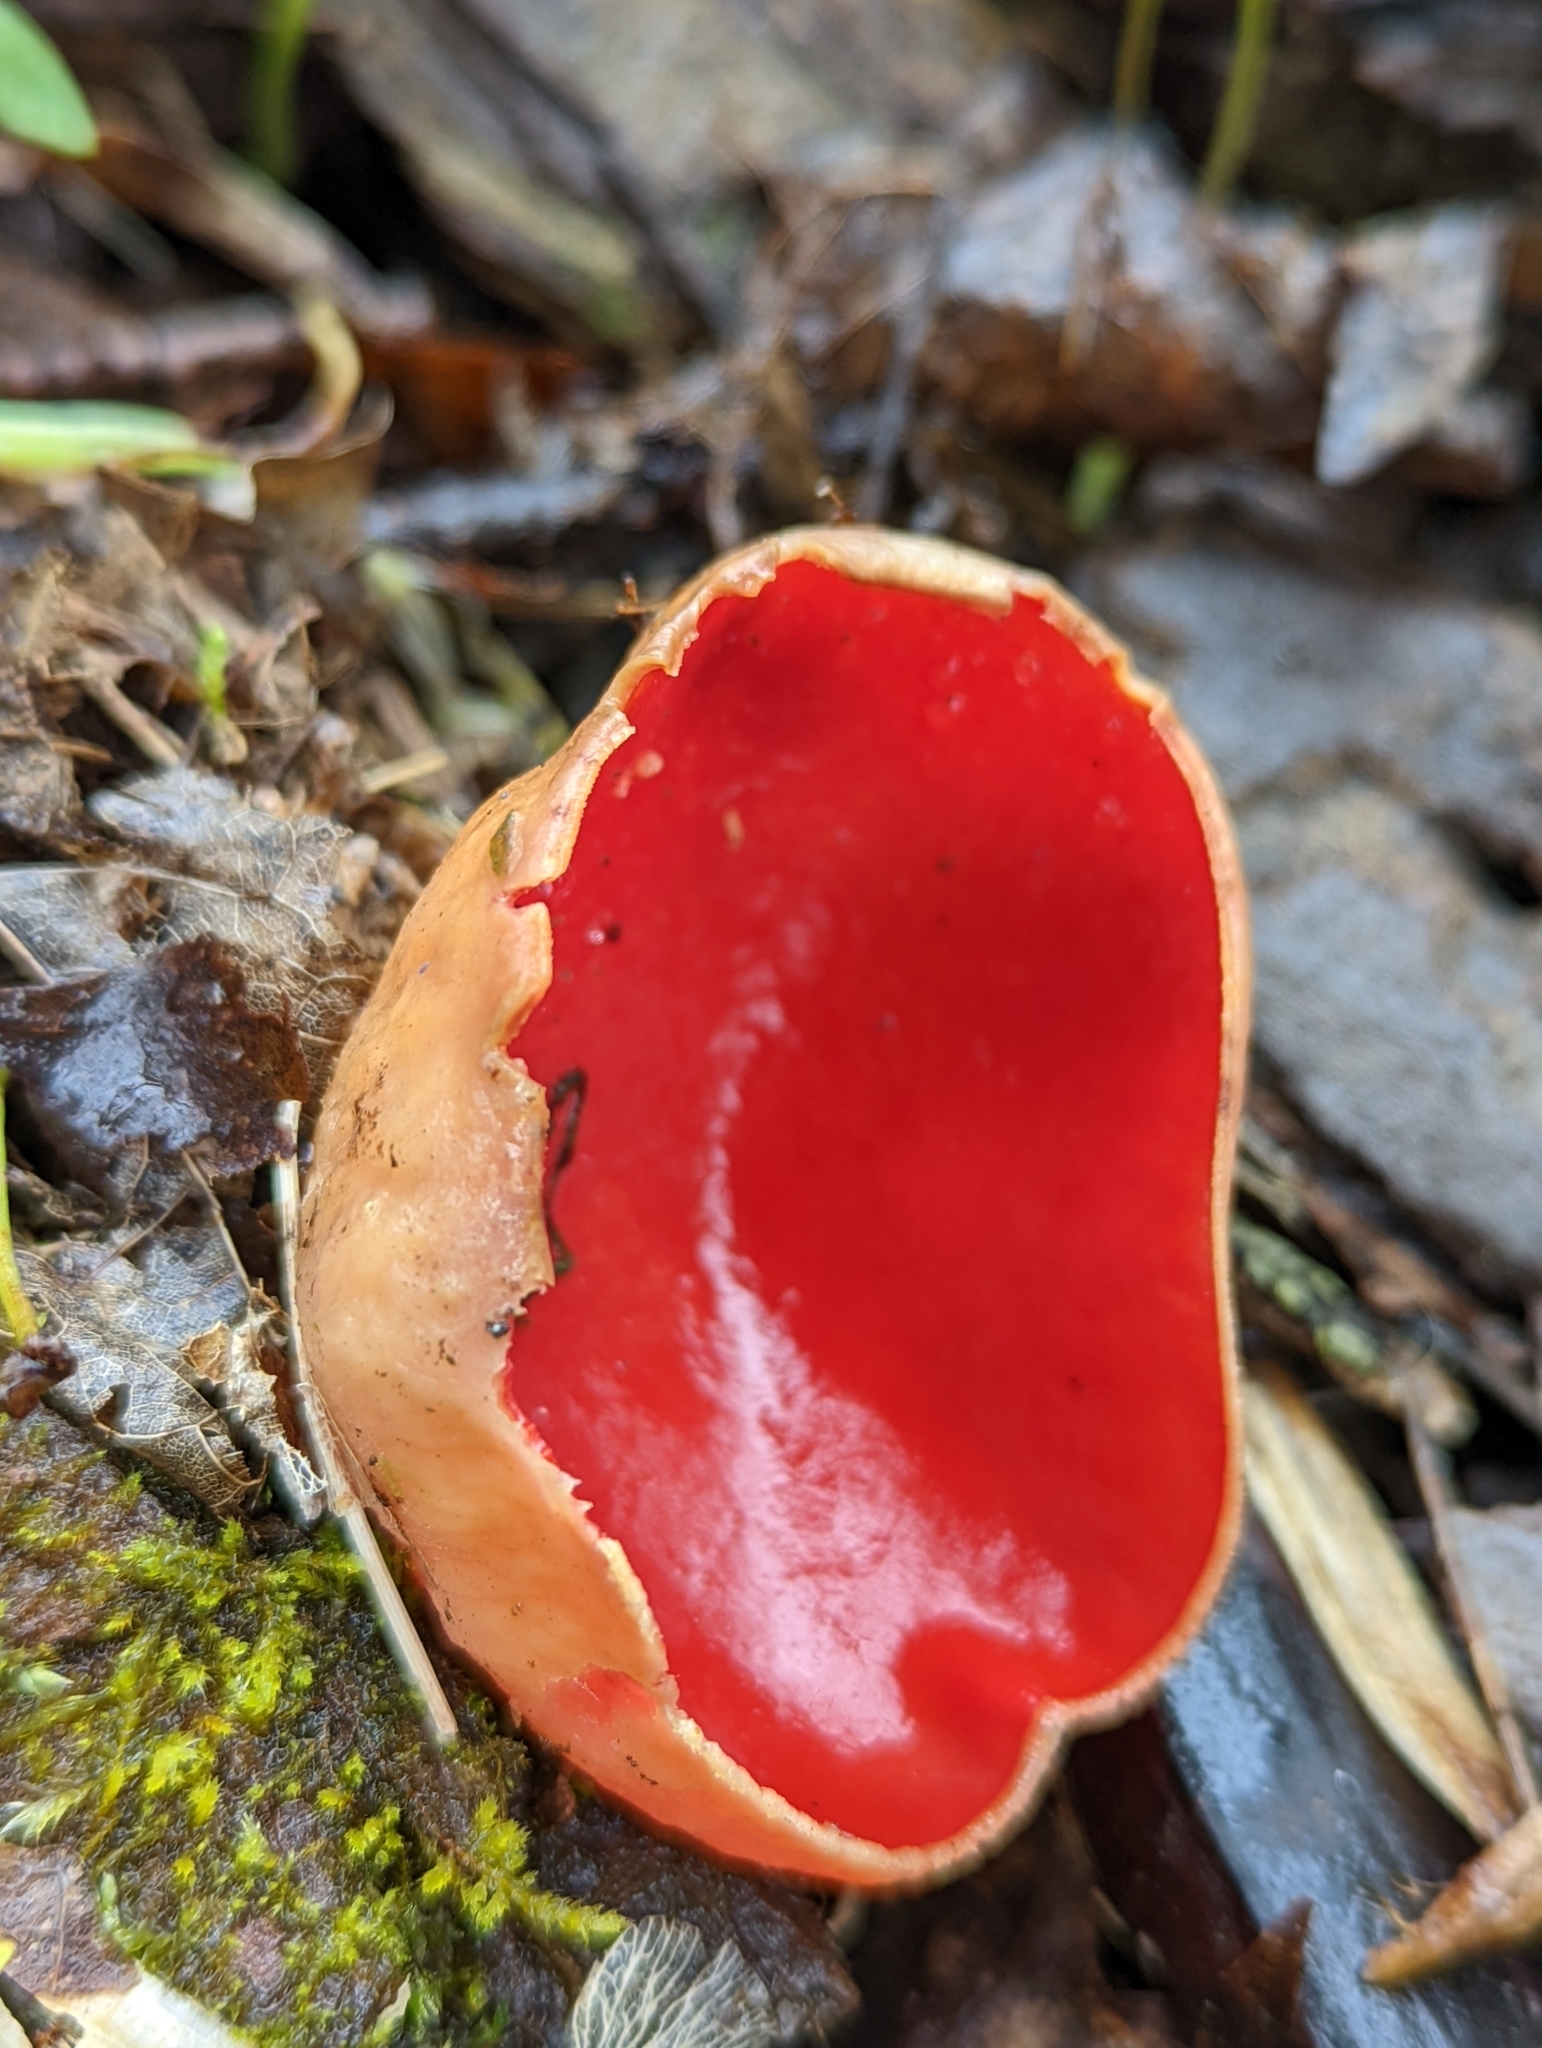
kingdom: Fungi
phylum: Ascomycota
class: Pezizomycetes
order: Pezizales
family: Sarcoscyphaceae
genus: Sarcoscypha
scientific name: Sarcoscypha austriaca
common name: Scarlet elfcup
